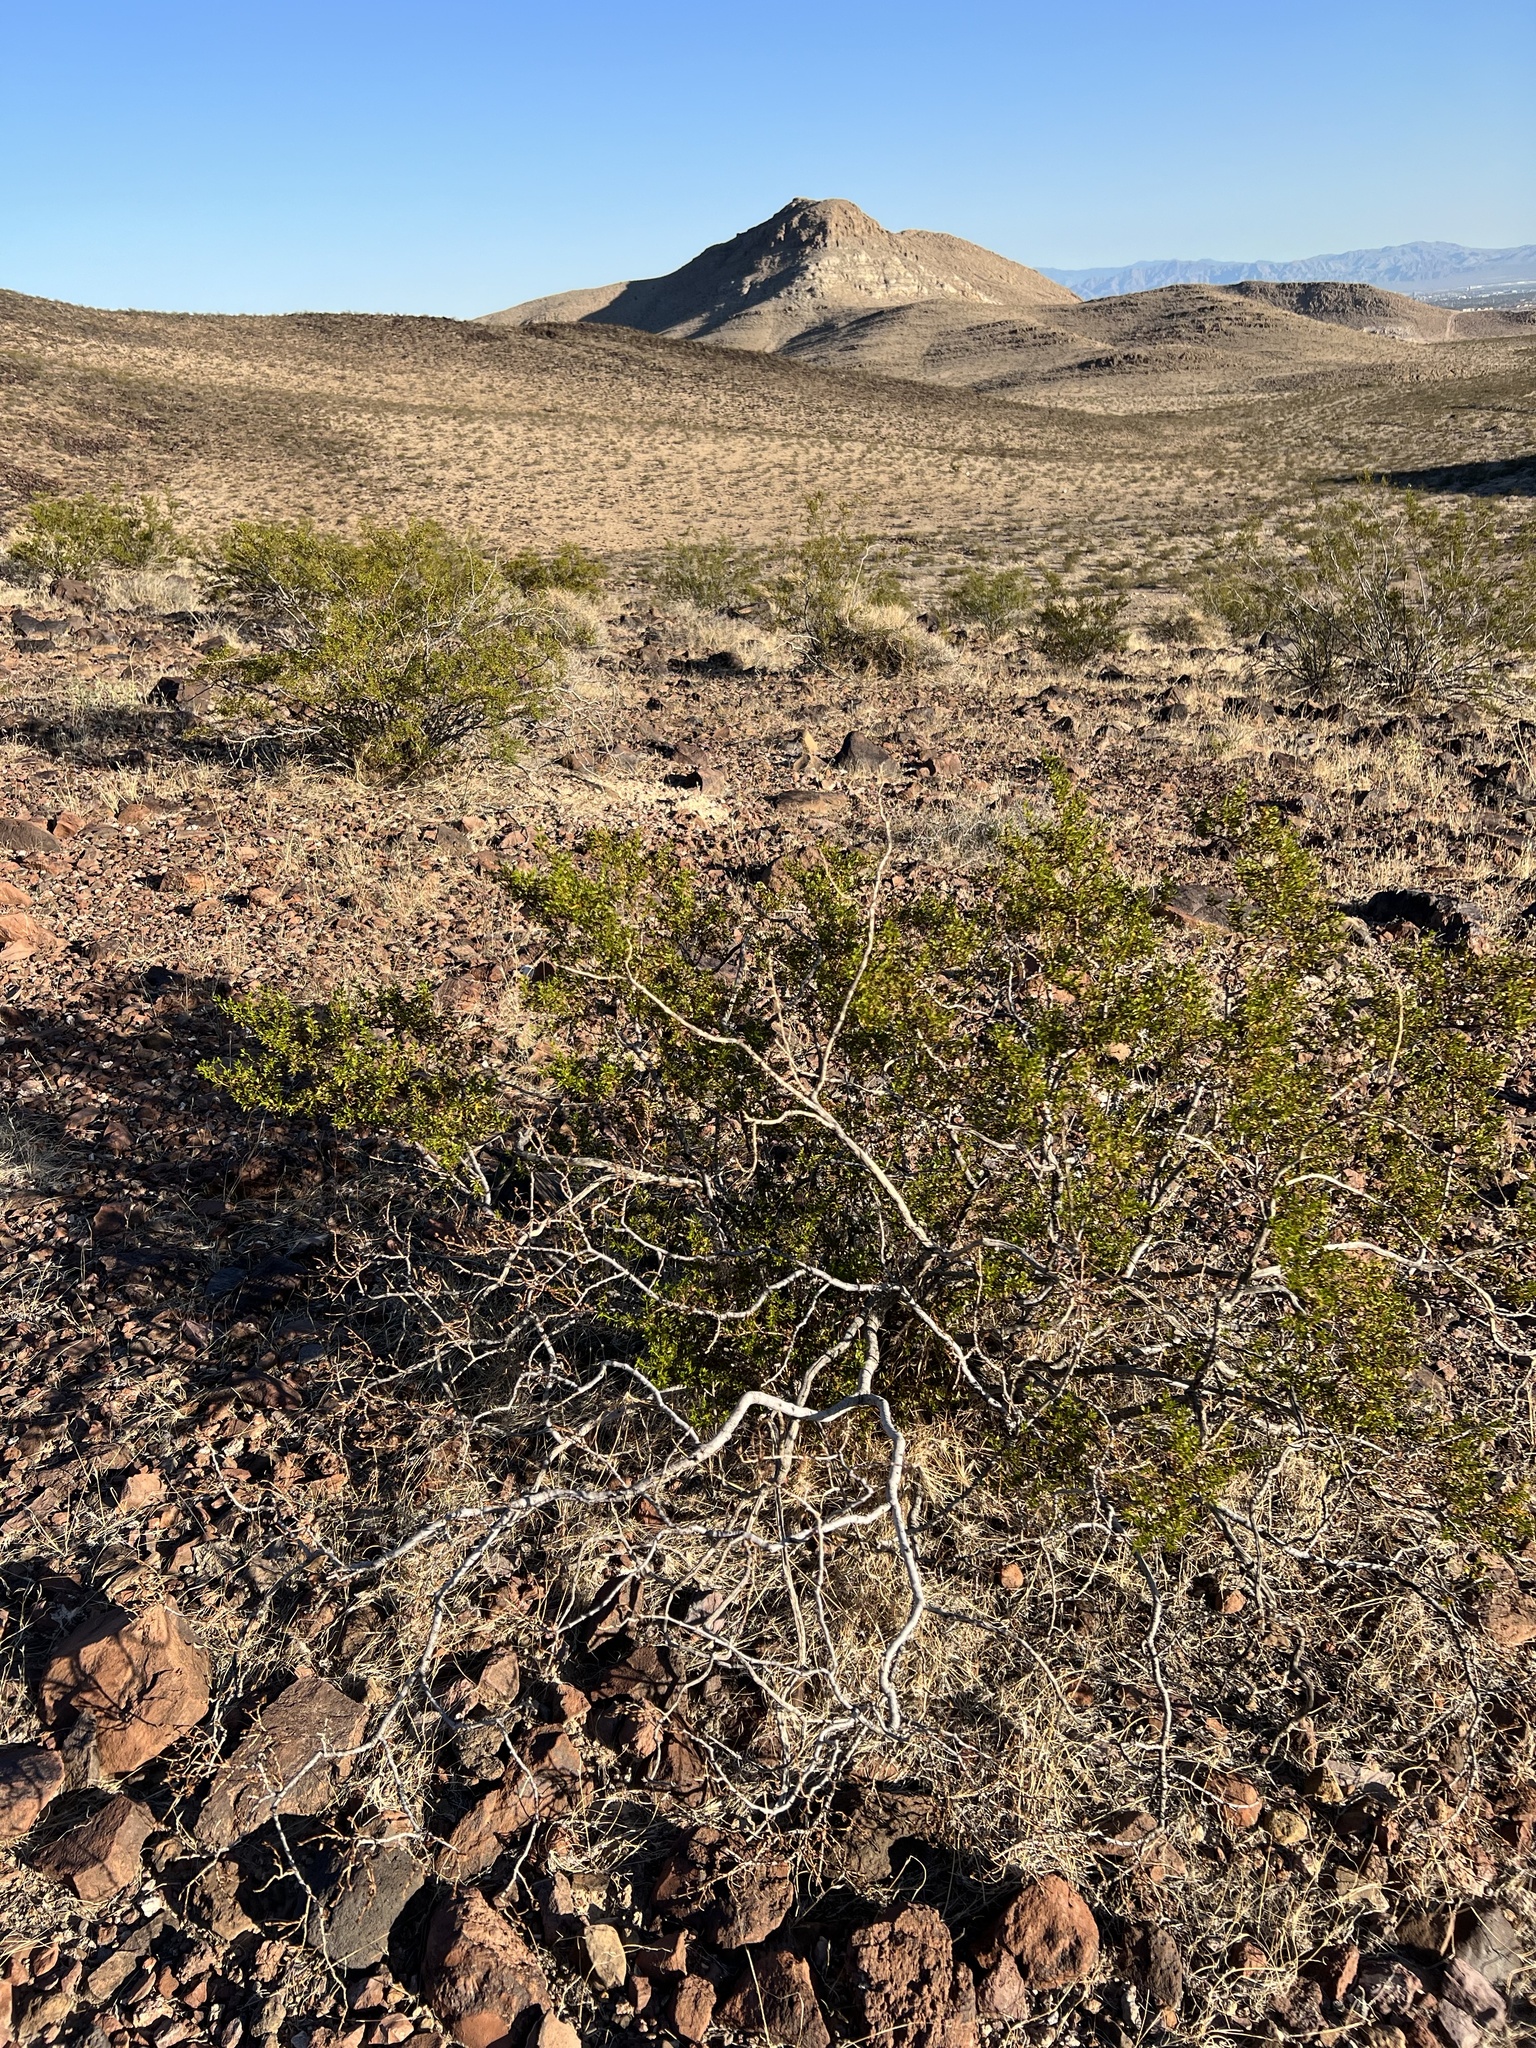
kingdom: Plantae
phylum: Tracheophyta
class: Magnoliopsida
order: Zygophyllales
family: Zygophyllaceae
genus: Larrea
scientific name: Larrea tridentata
